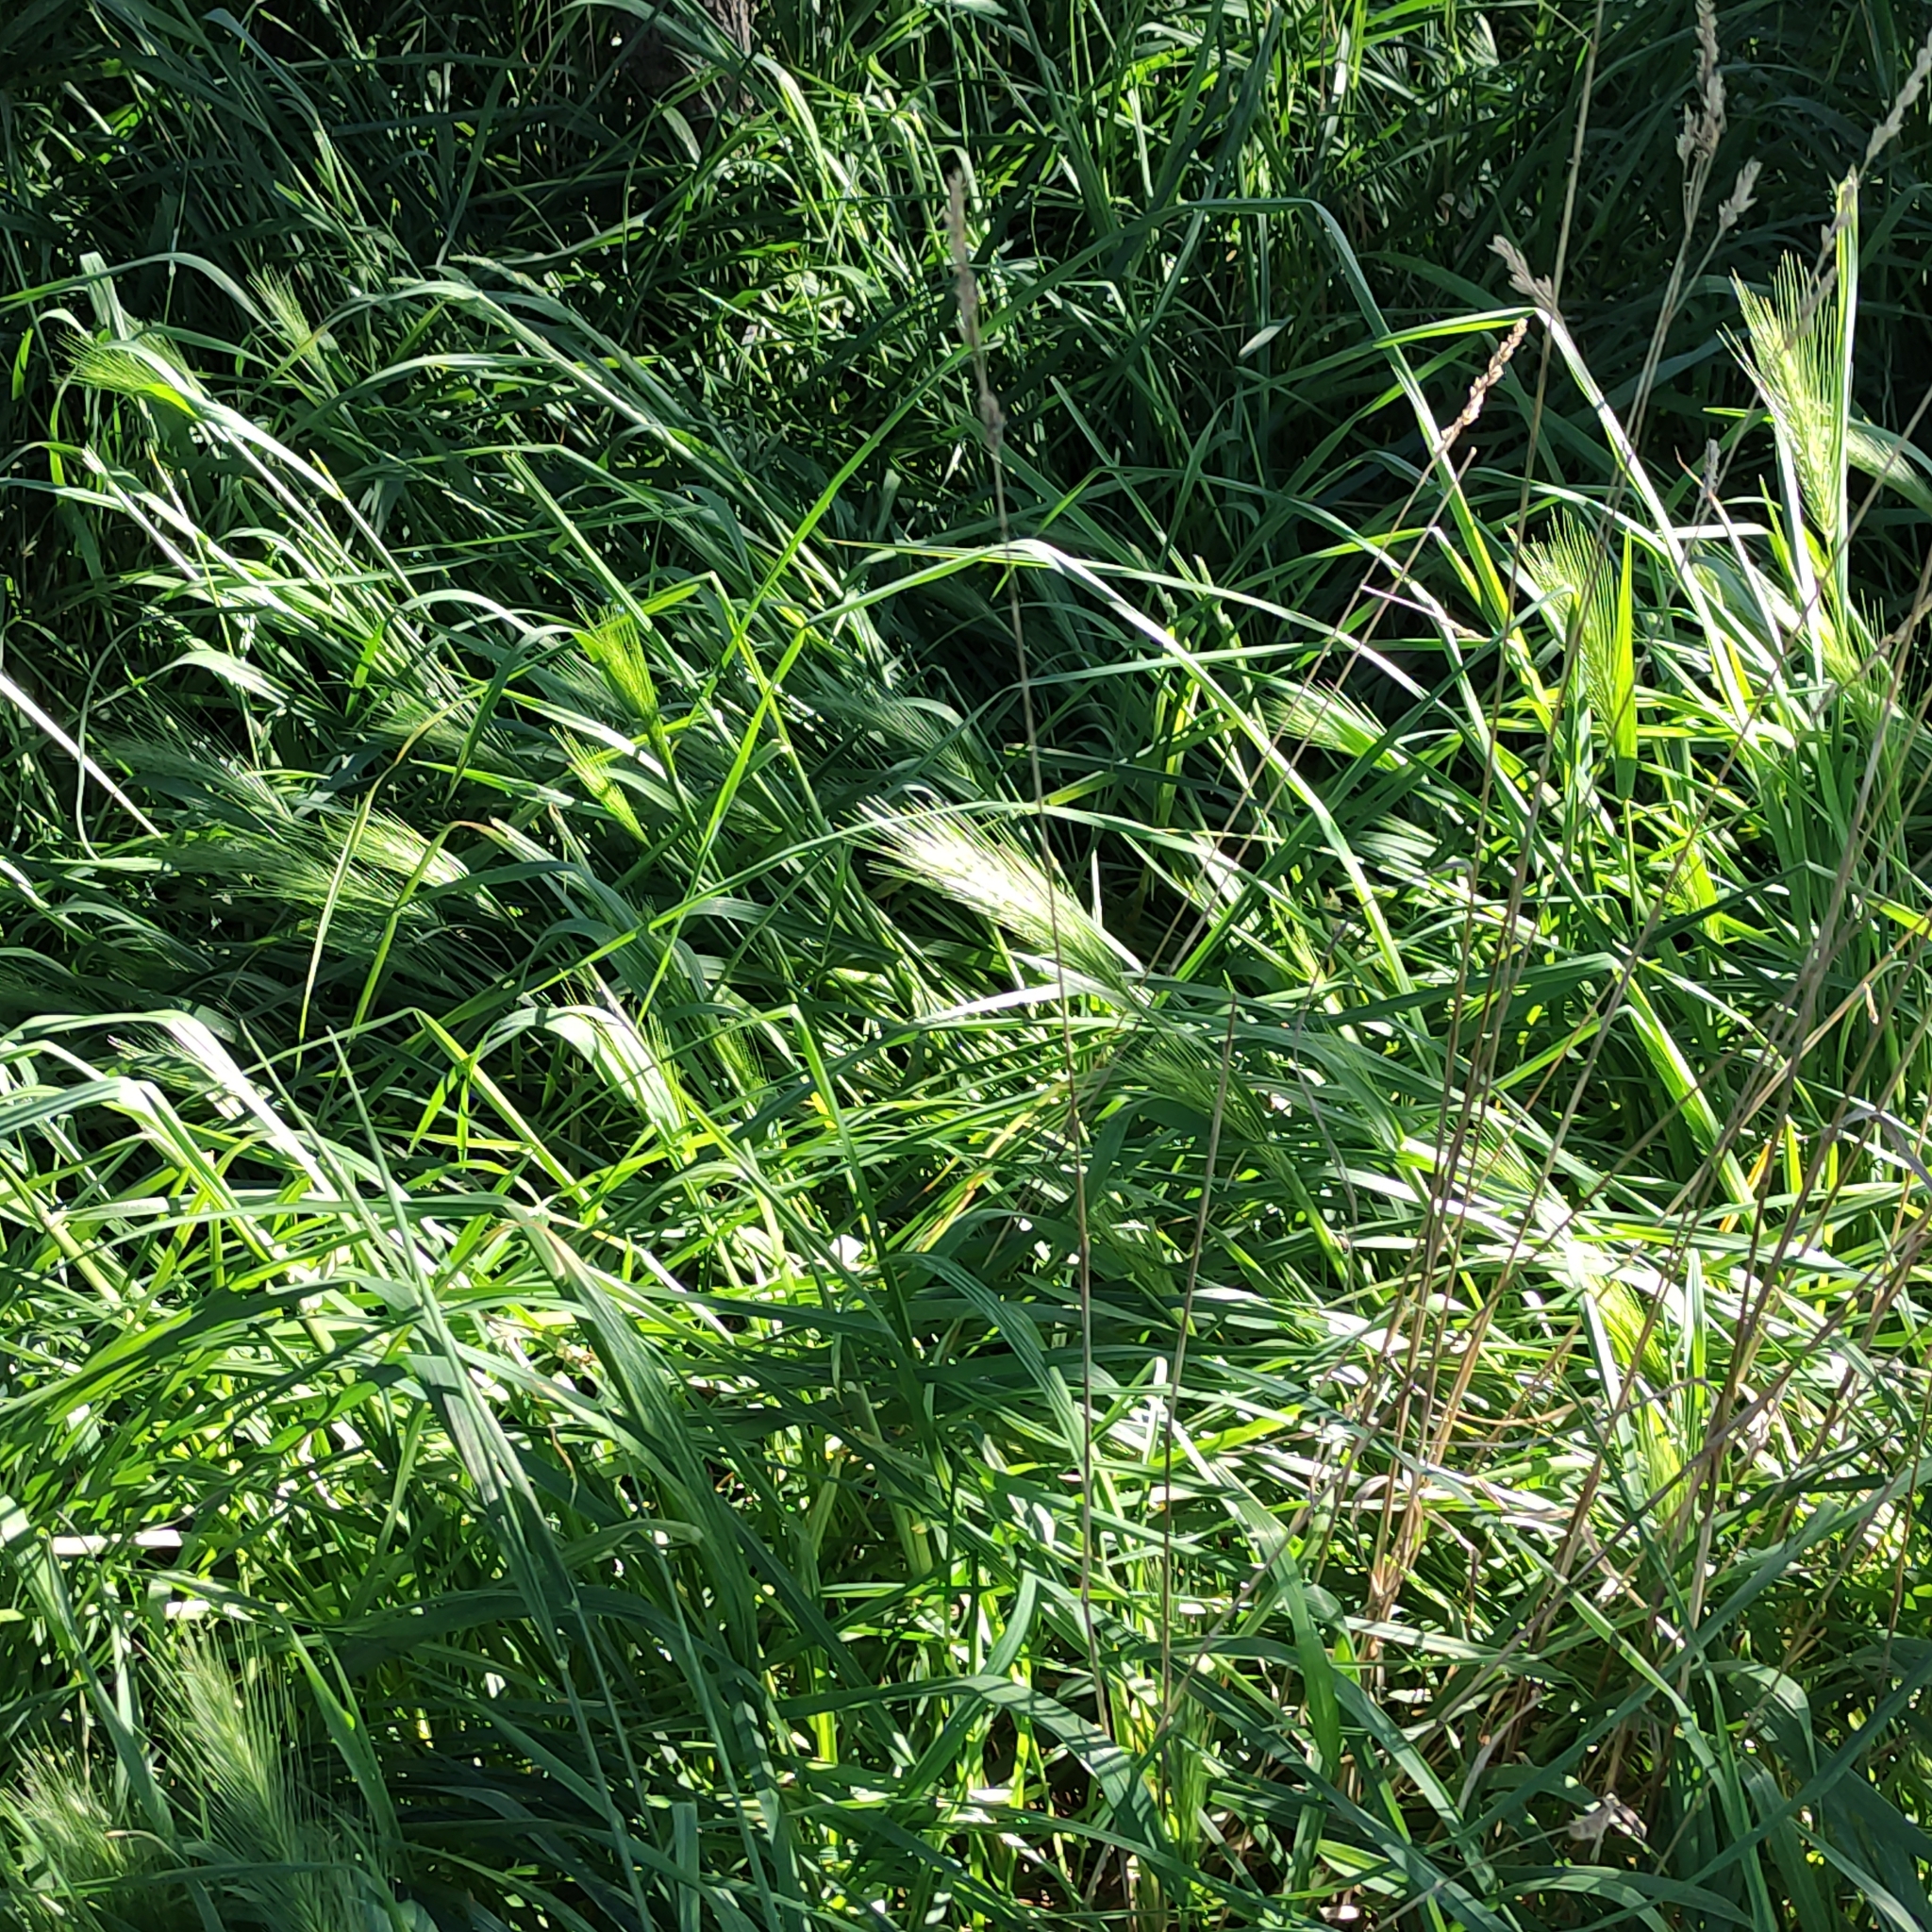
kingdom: Plantae
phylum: Tracheophyta
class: Liliopsida
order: Poales
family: Poaceae
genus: Hordeum
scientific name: Hordeum murinum
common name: Wall barley
